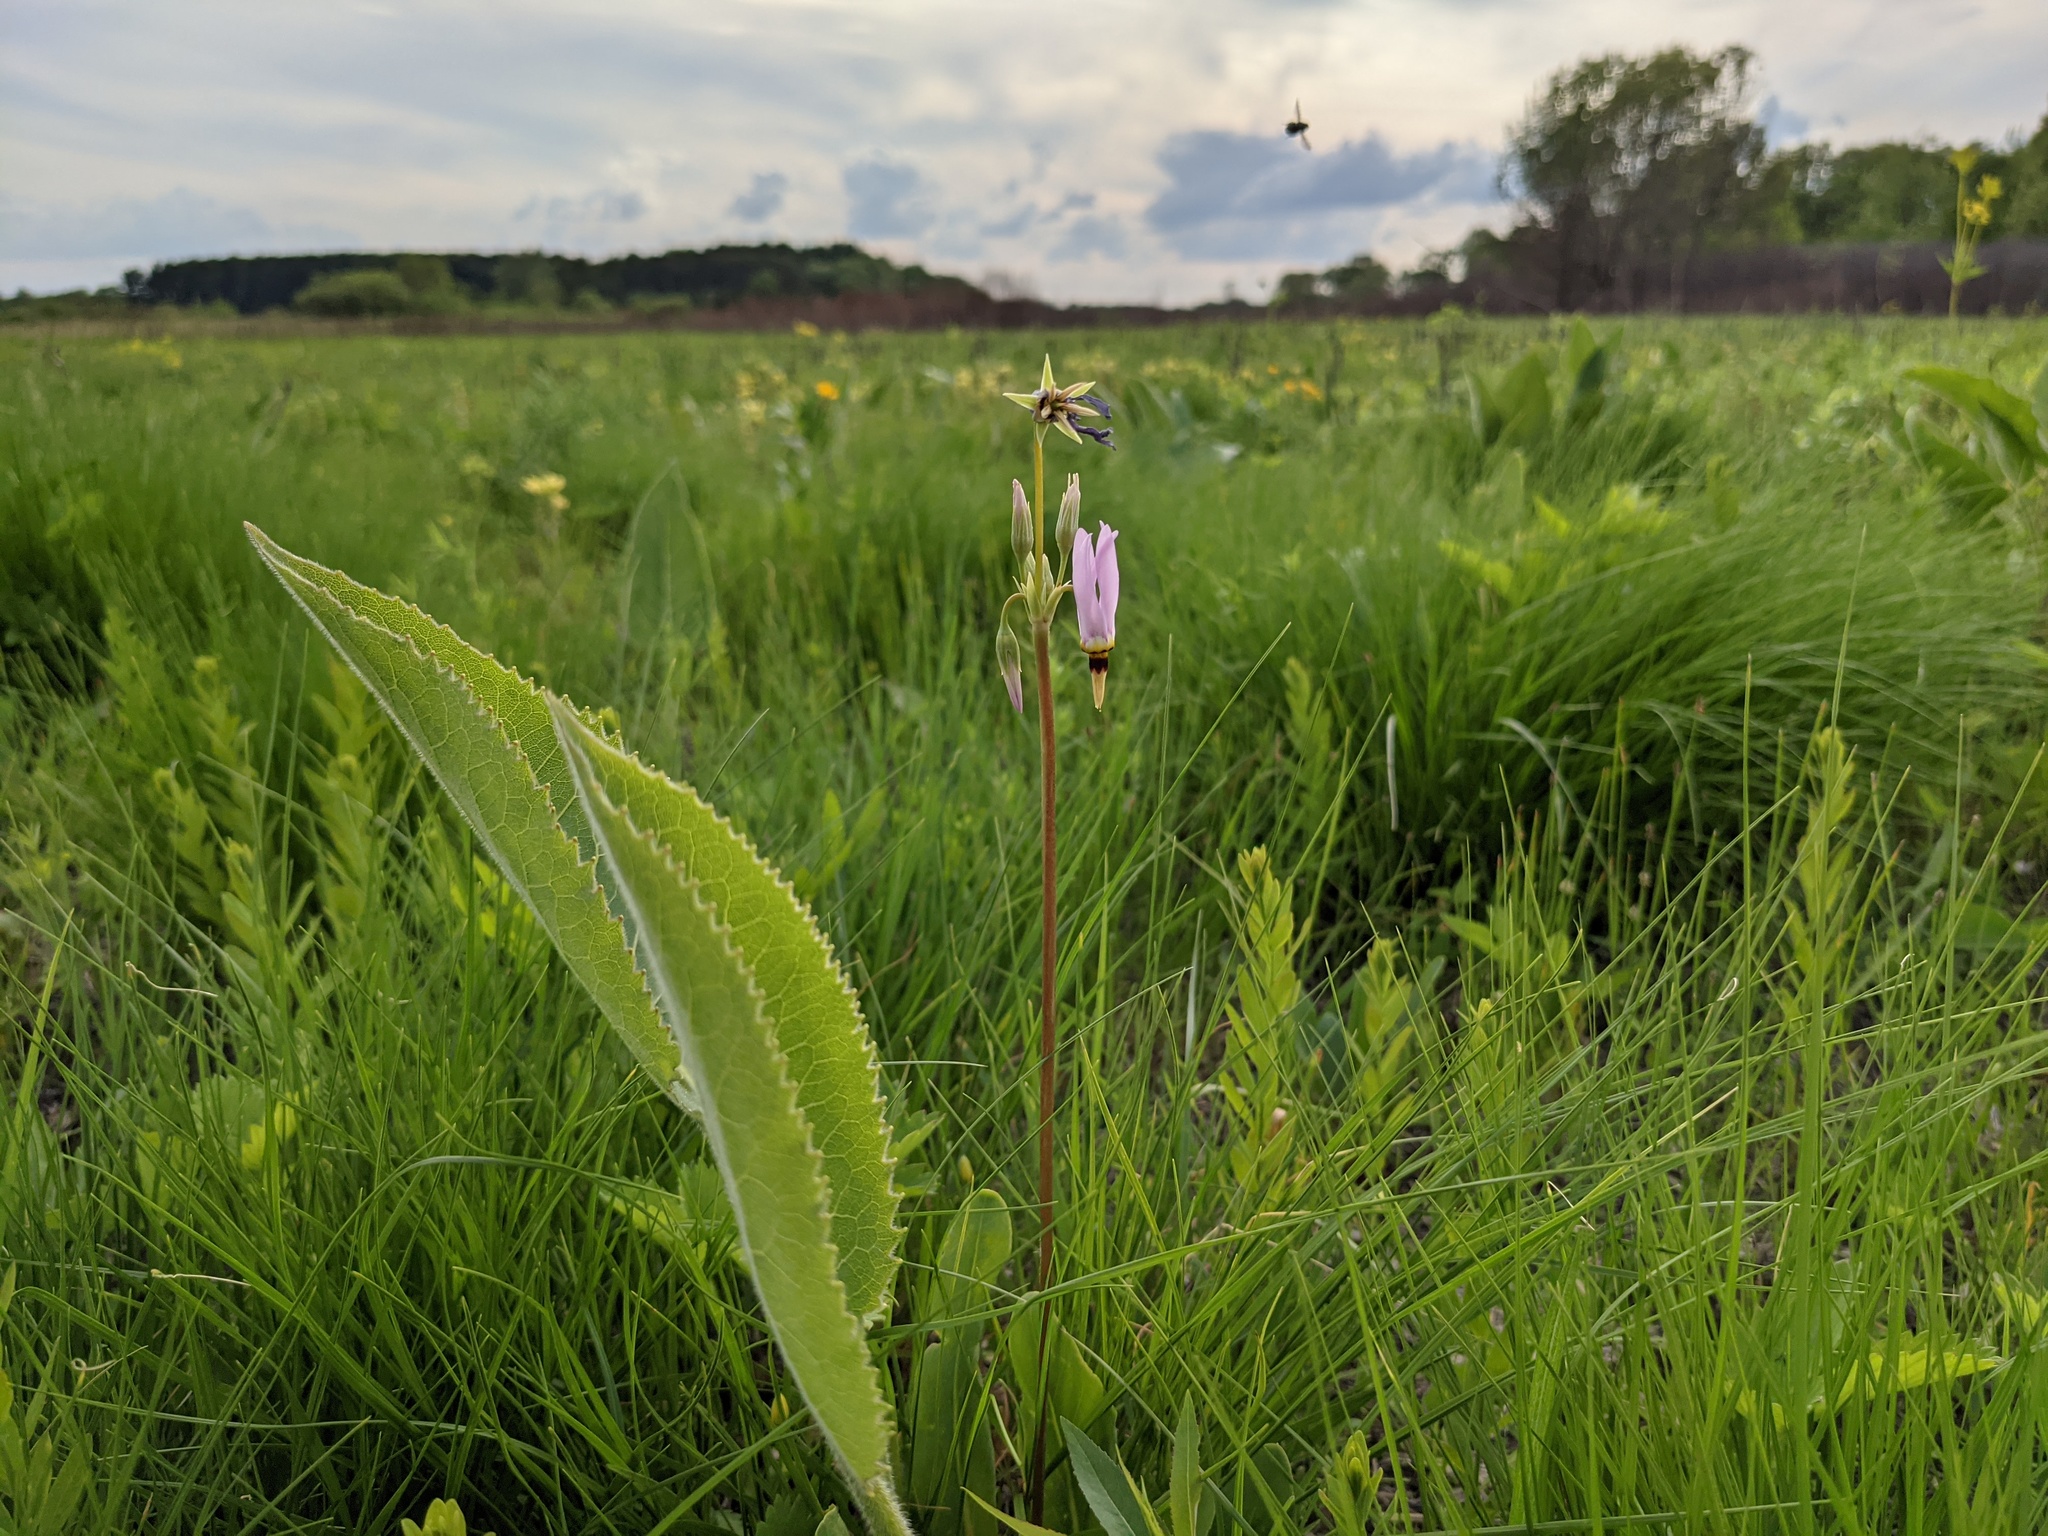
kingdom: Plantae
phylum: Tracheophyta
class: Magnoliopsida
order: Ericales
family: Primulaceae
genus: Dodecatheon
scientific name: Dodecatheon meadia
